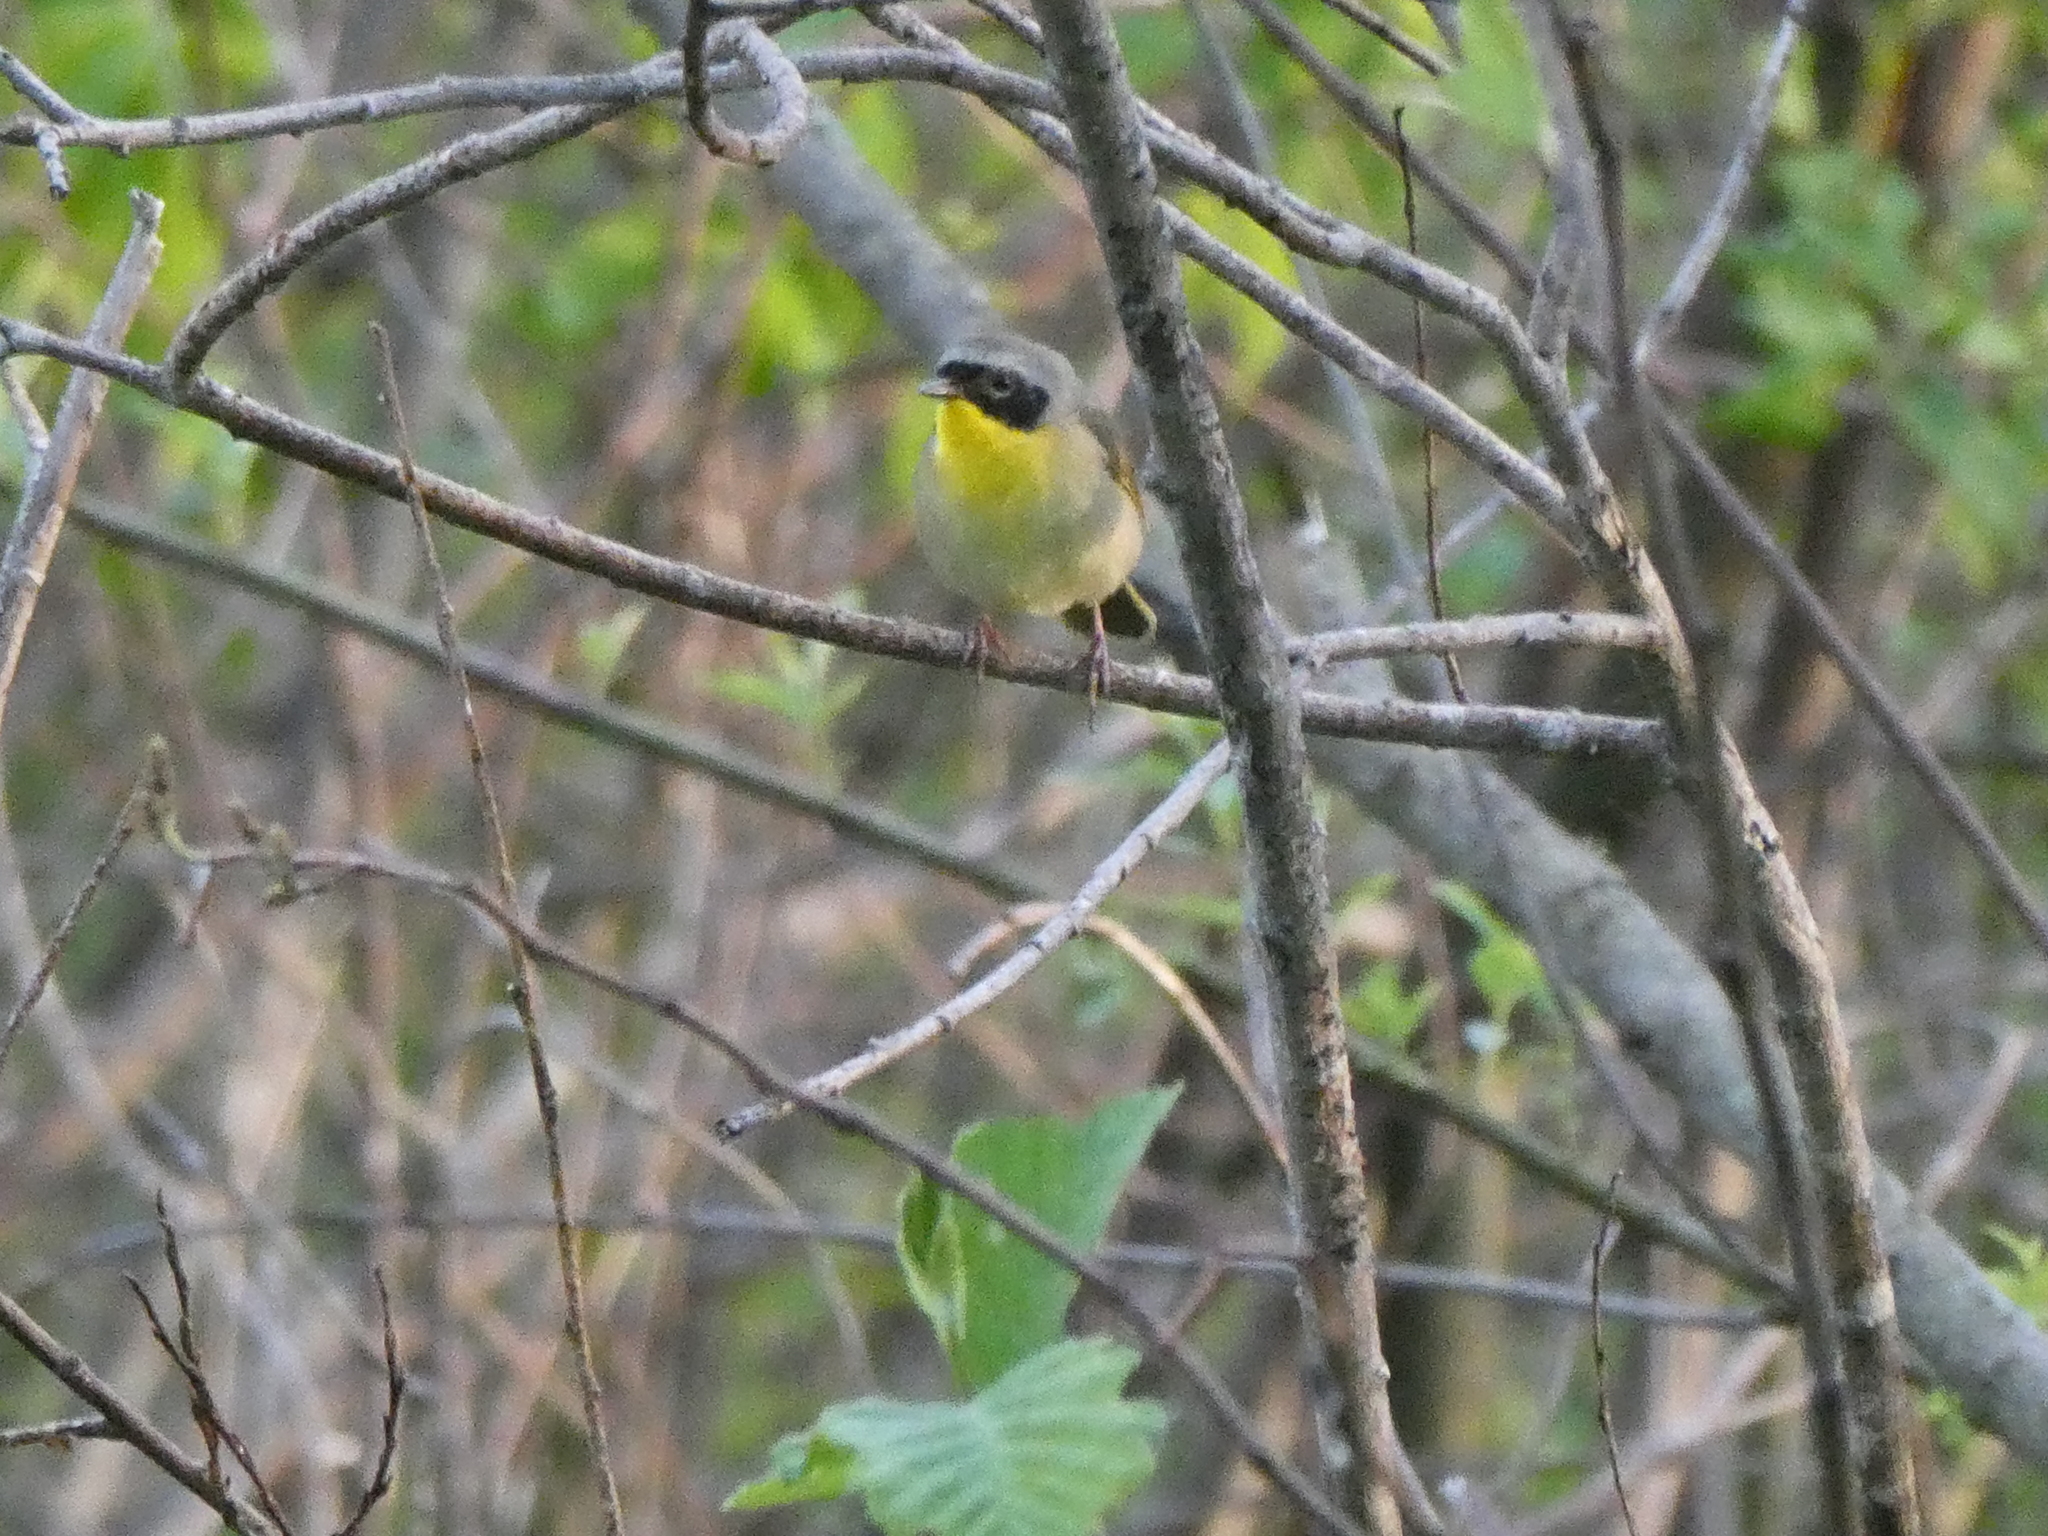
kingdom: Animalia
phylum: Chordata
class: Aves
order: Passeriformes
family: Parulidae
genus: Geothlypis
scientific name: Geothlypis trichas
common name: Common yellowthroat
